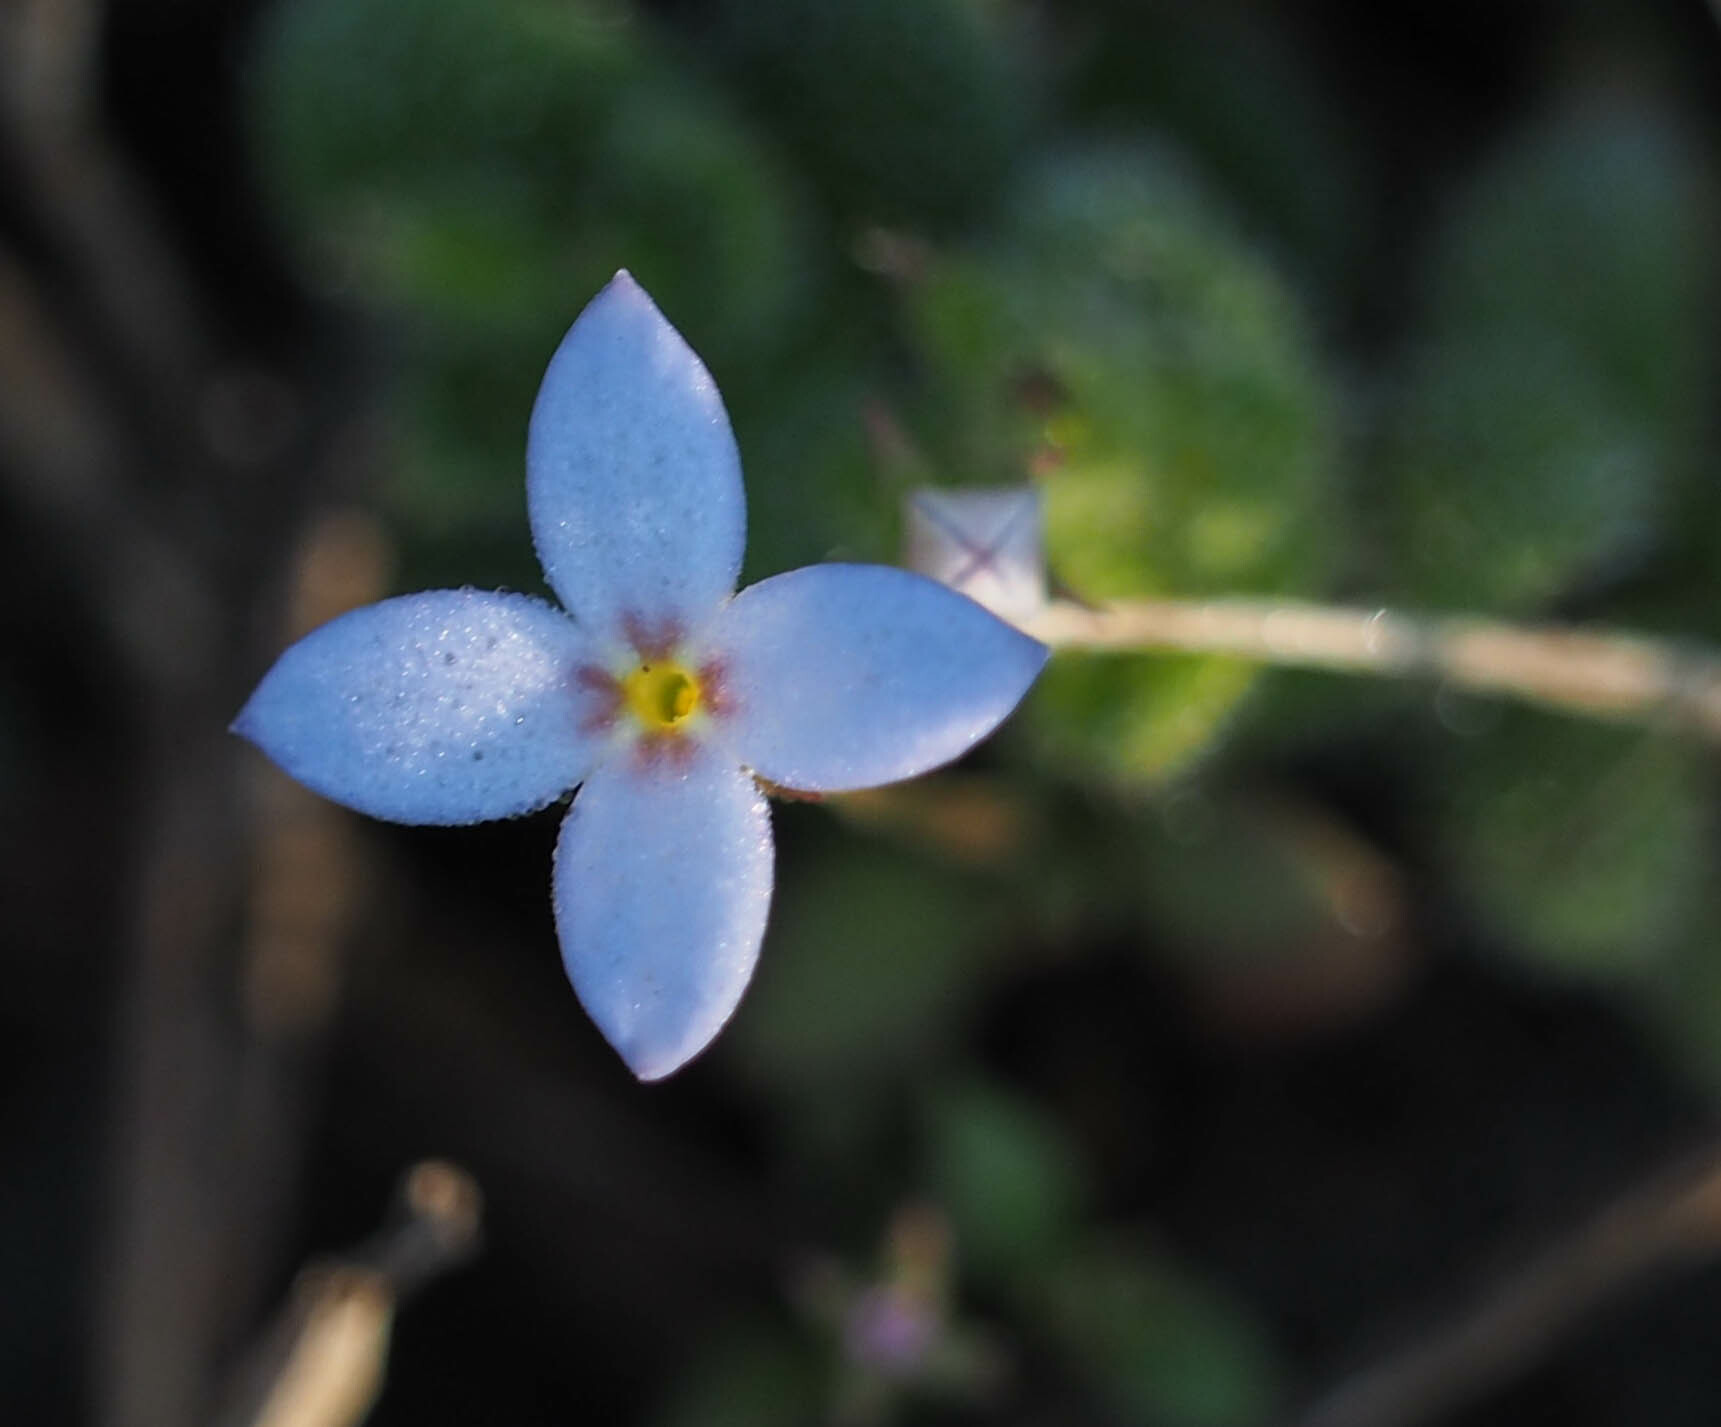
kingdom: Plantae
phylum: Tracheophyta
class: Magnoliopsida
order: Gentianales
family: Rubiaceae
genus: Houstonia
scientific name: Houstonia pusilla
